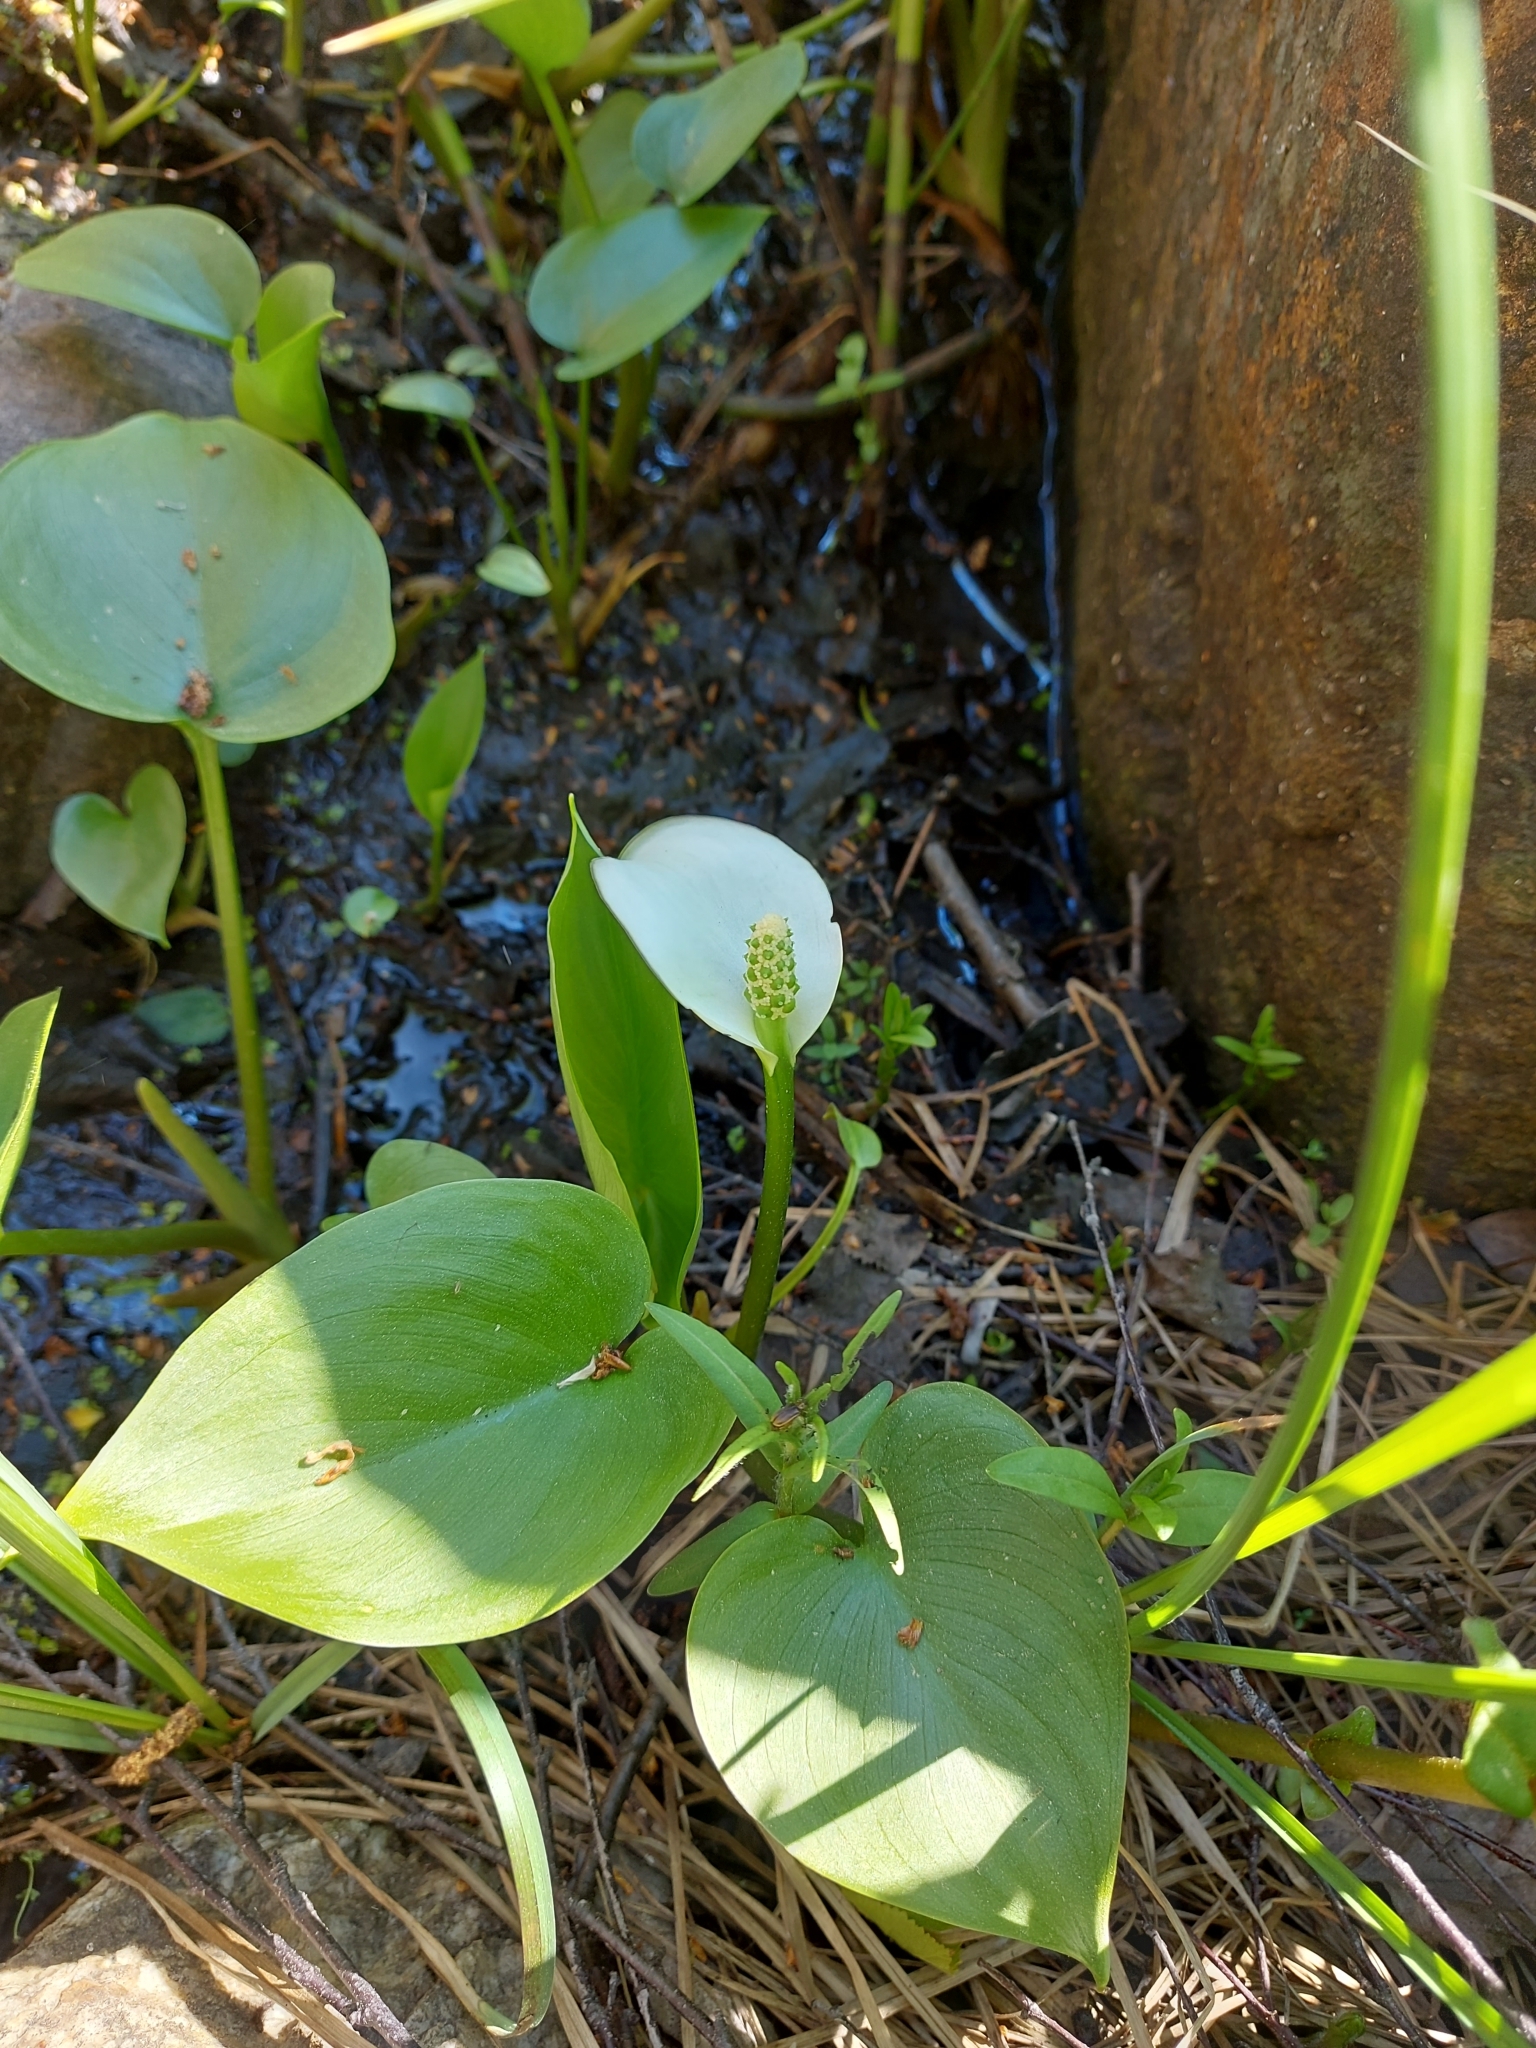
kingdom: Plantae
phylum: Tracheophyta
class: Liliopsida
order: Alismatales
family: Araceae
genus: Calla
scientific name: Calla palustris
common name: Bog arum
